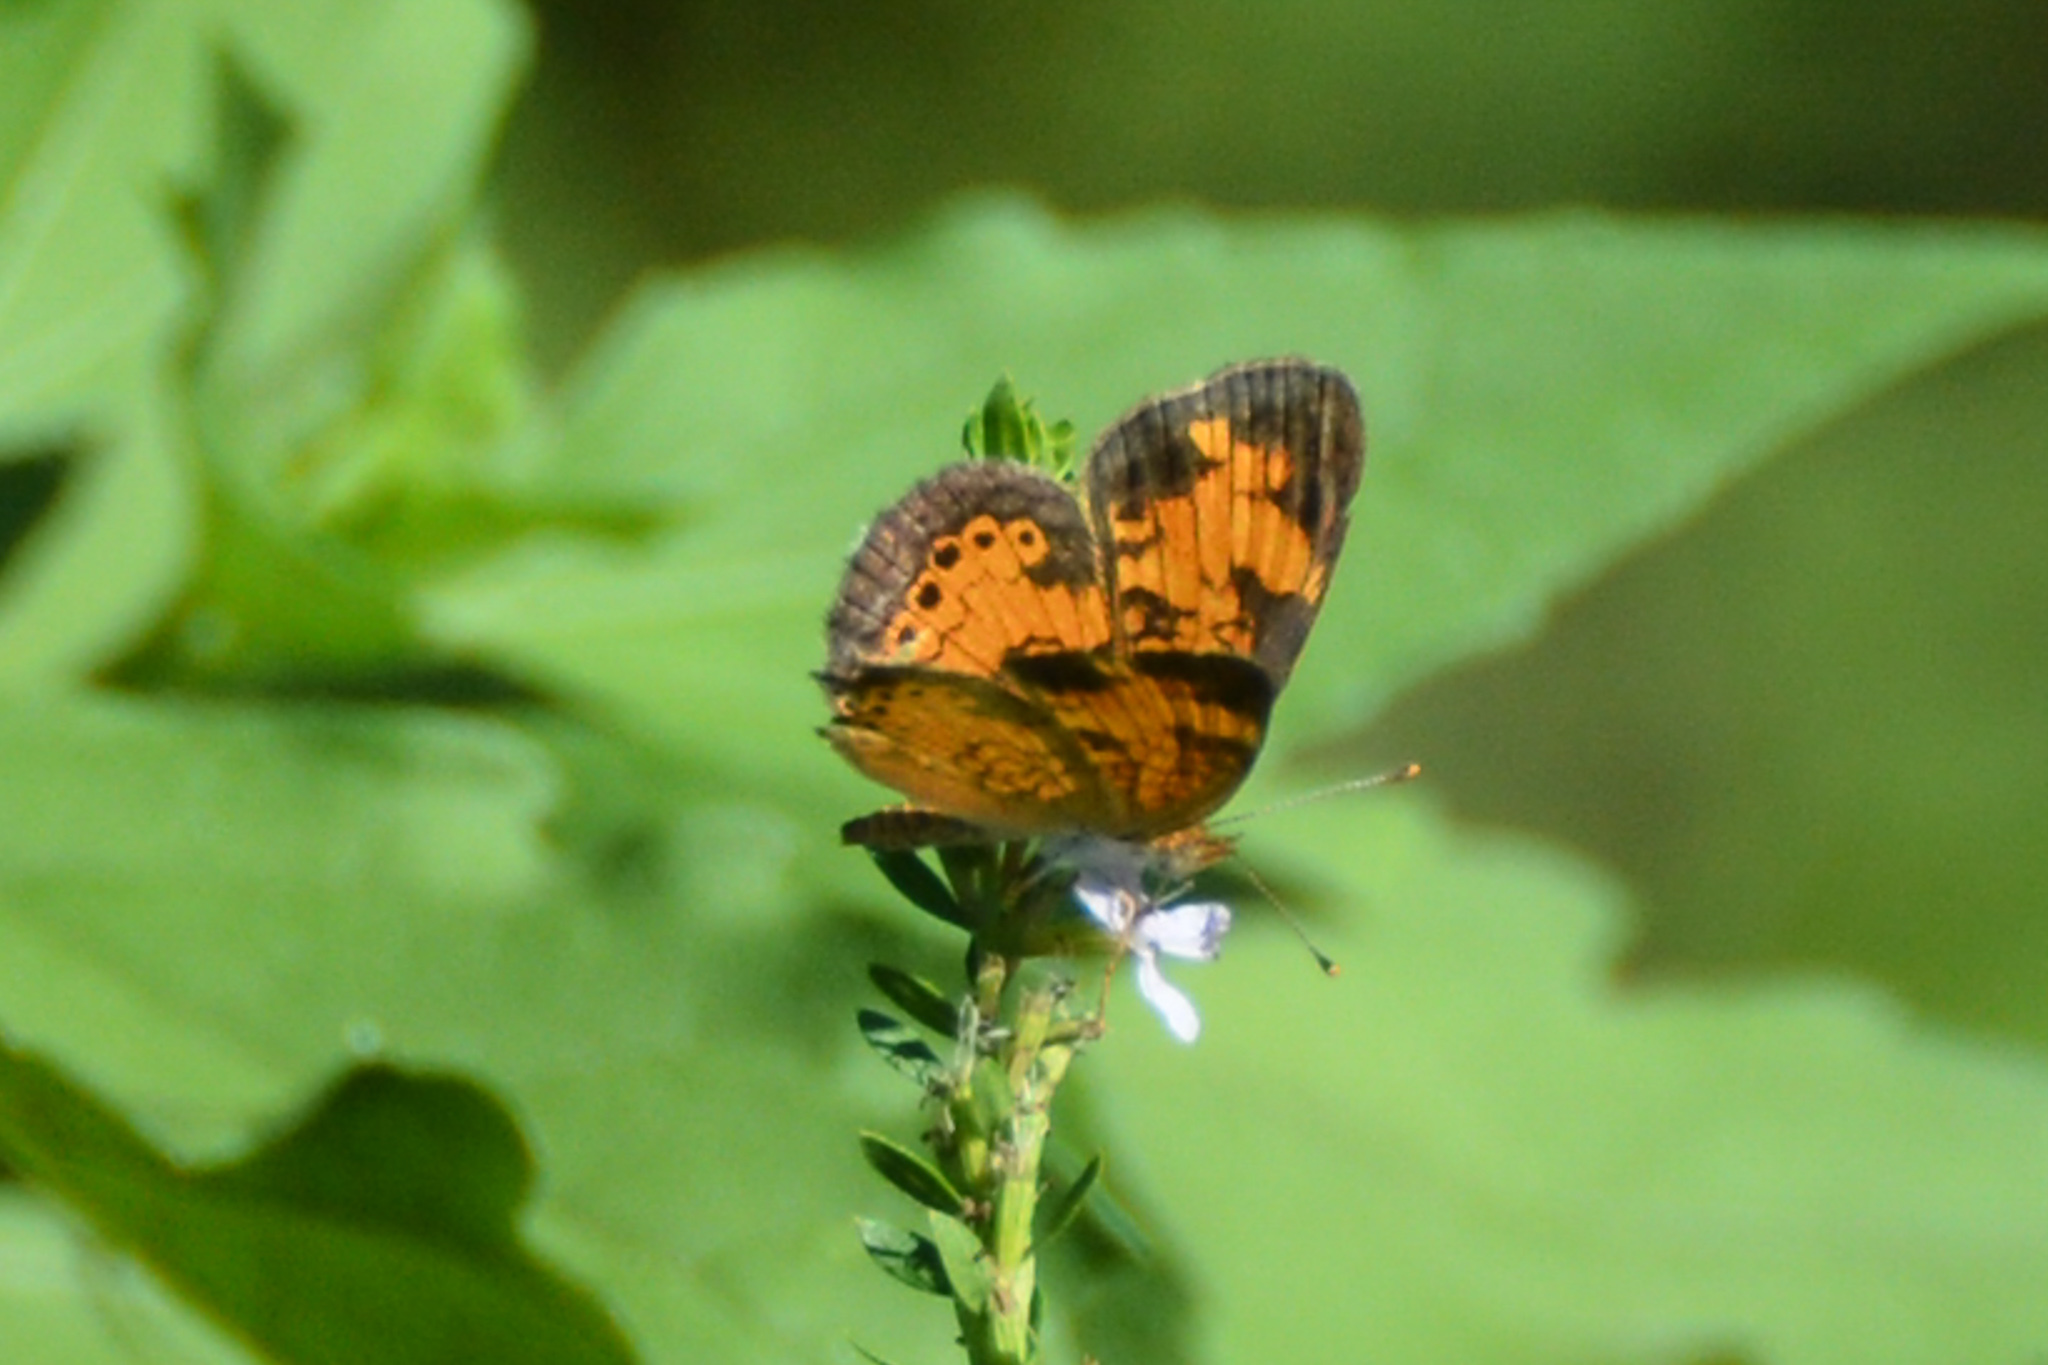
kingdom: Animalia
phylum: Arthropoda
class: Insecta
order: Lepidoptera
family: Nymphalidae
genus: Phyciodes
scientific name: Phyciodes tharos
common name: Pearl crescent
